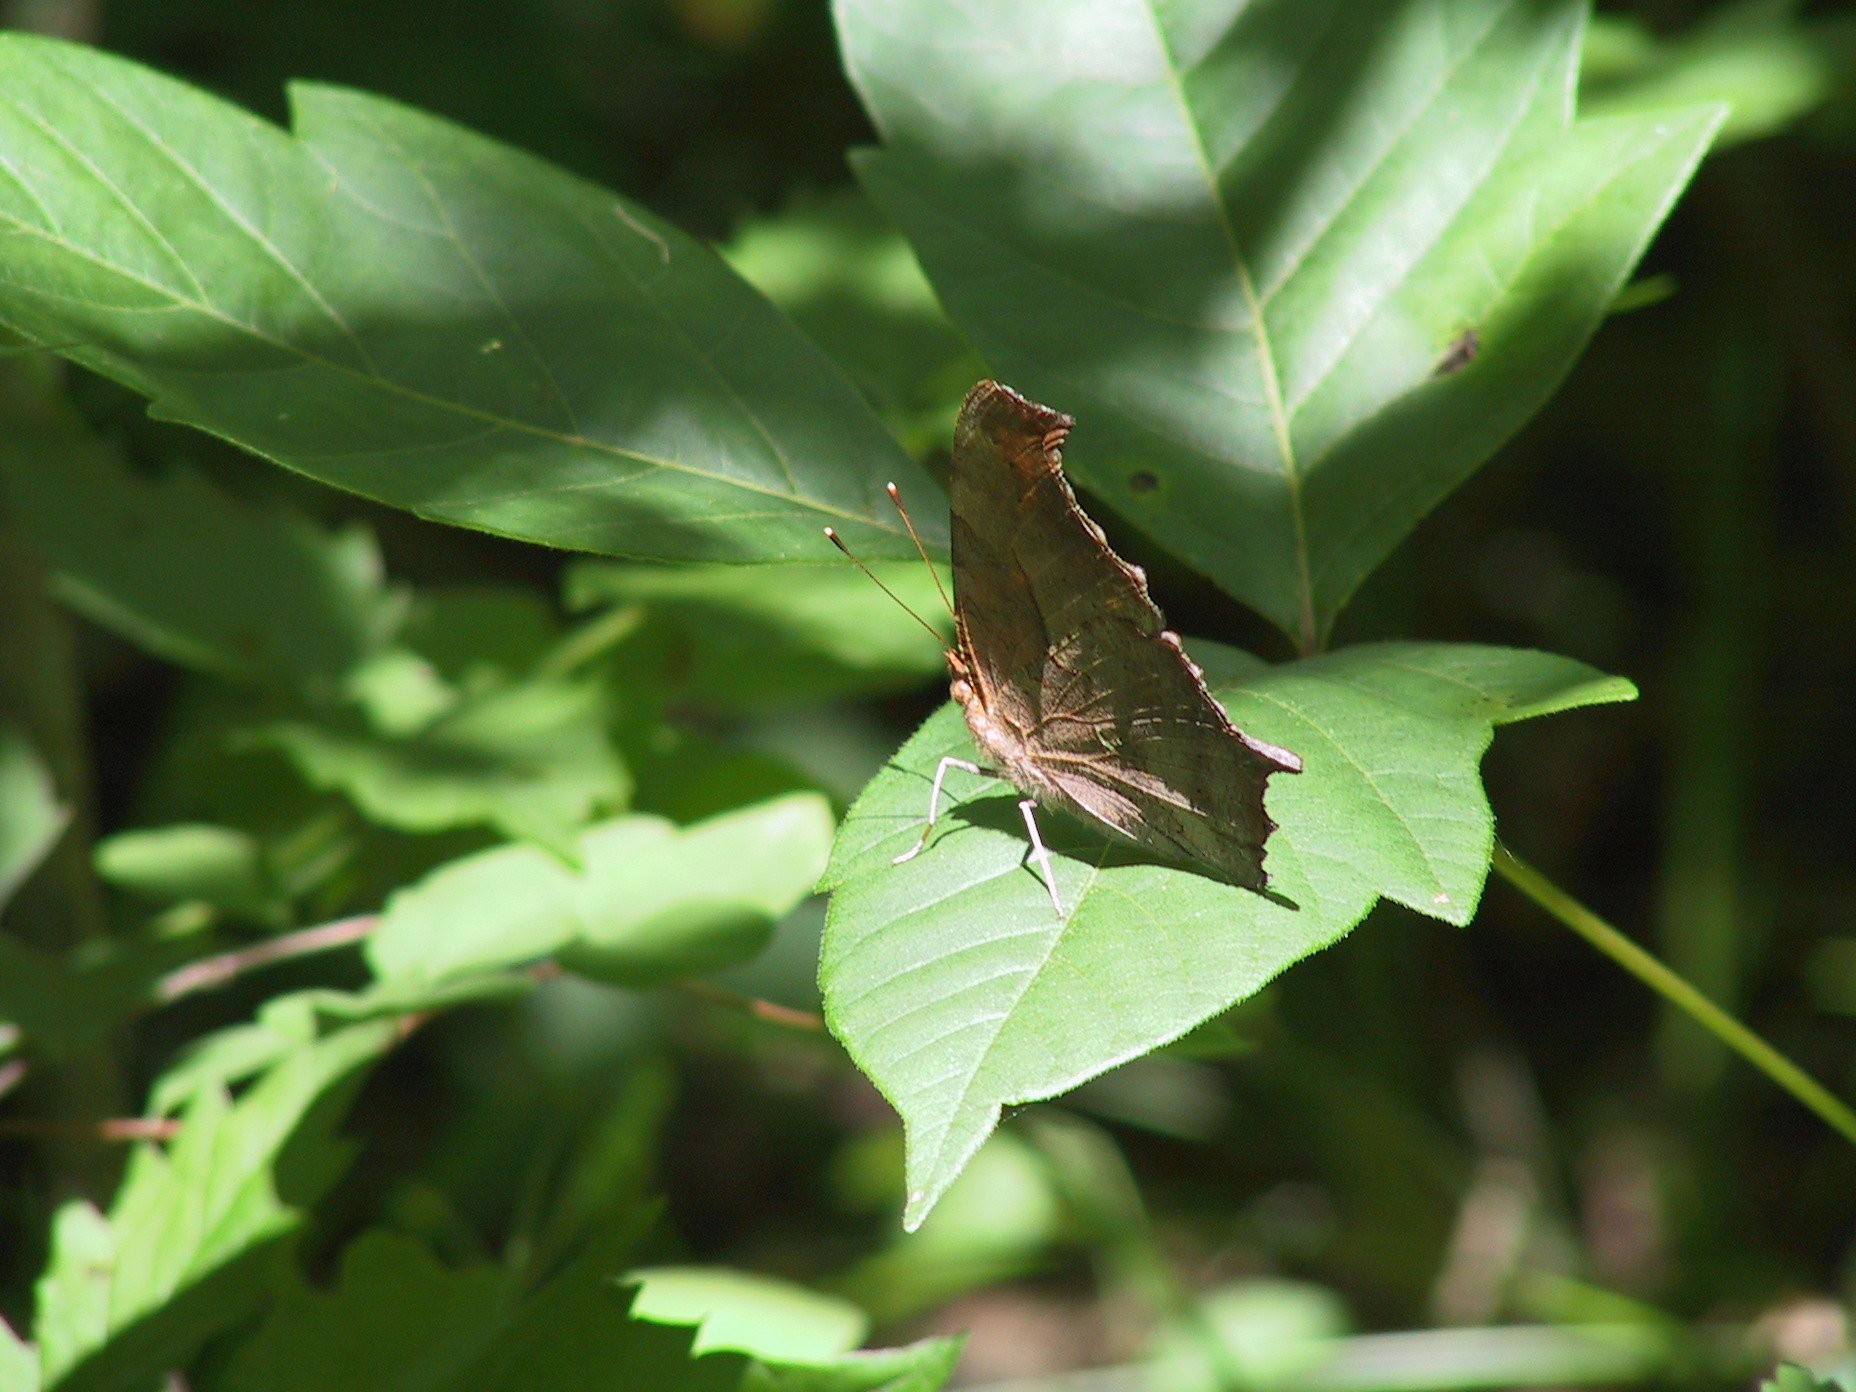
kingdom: Plantae
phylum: Tracheophyta
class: Magnoliopsida
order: Sapindales
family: Anacardiaceae
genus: Toxicodendron
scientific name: Toxicodendron radicans
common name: Poison ivy
